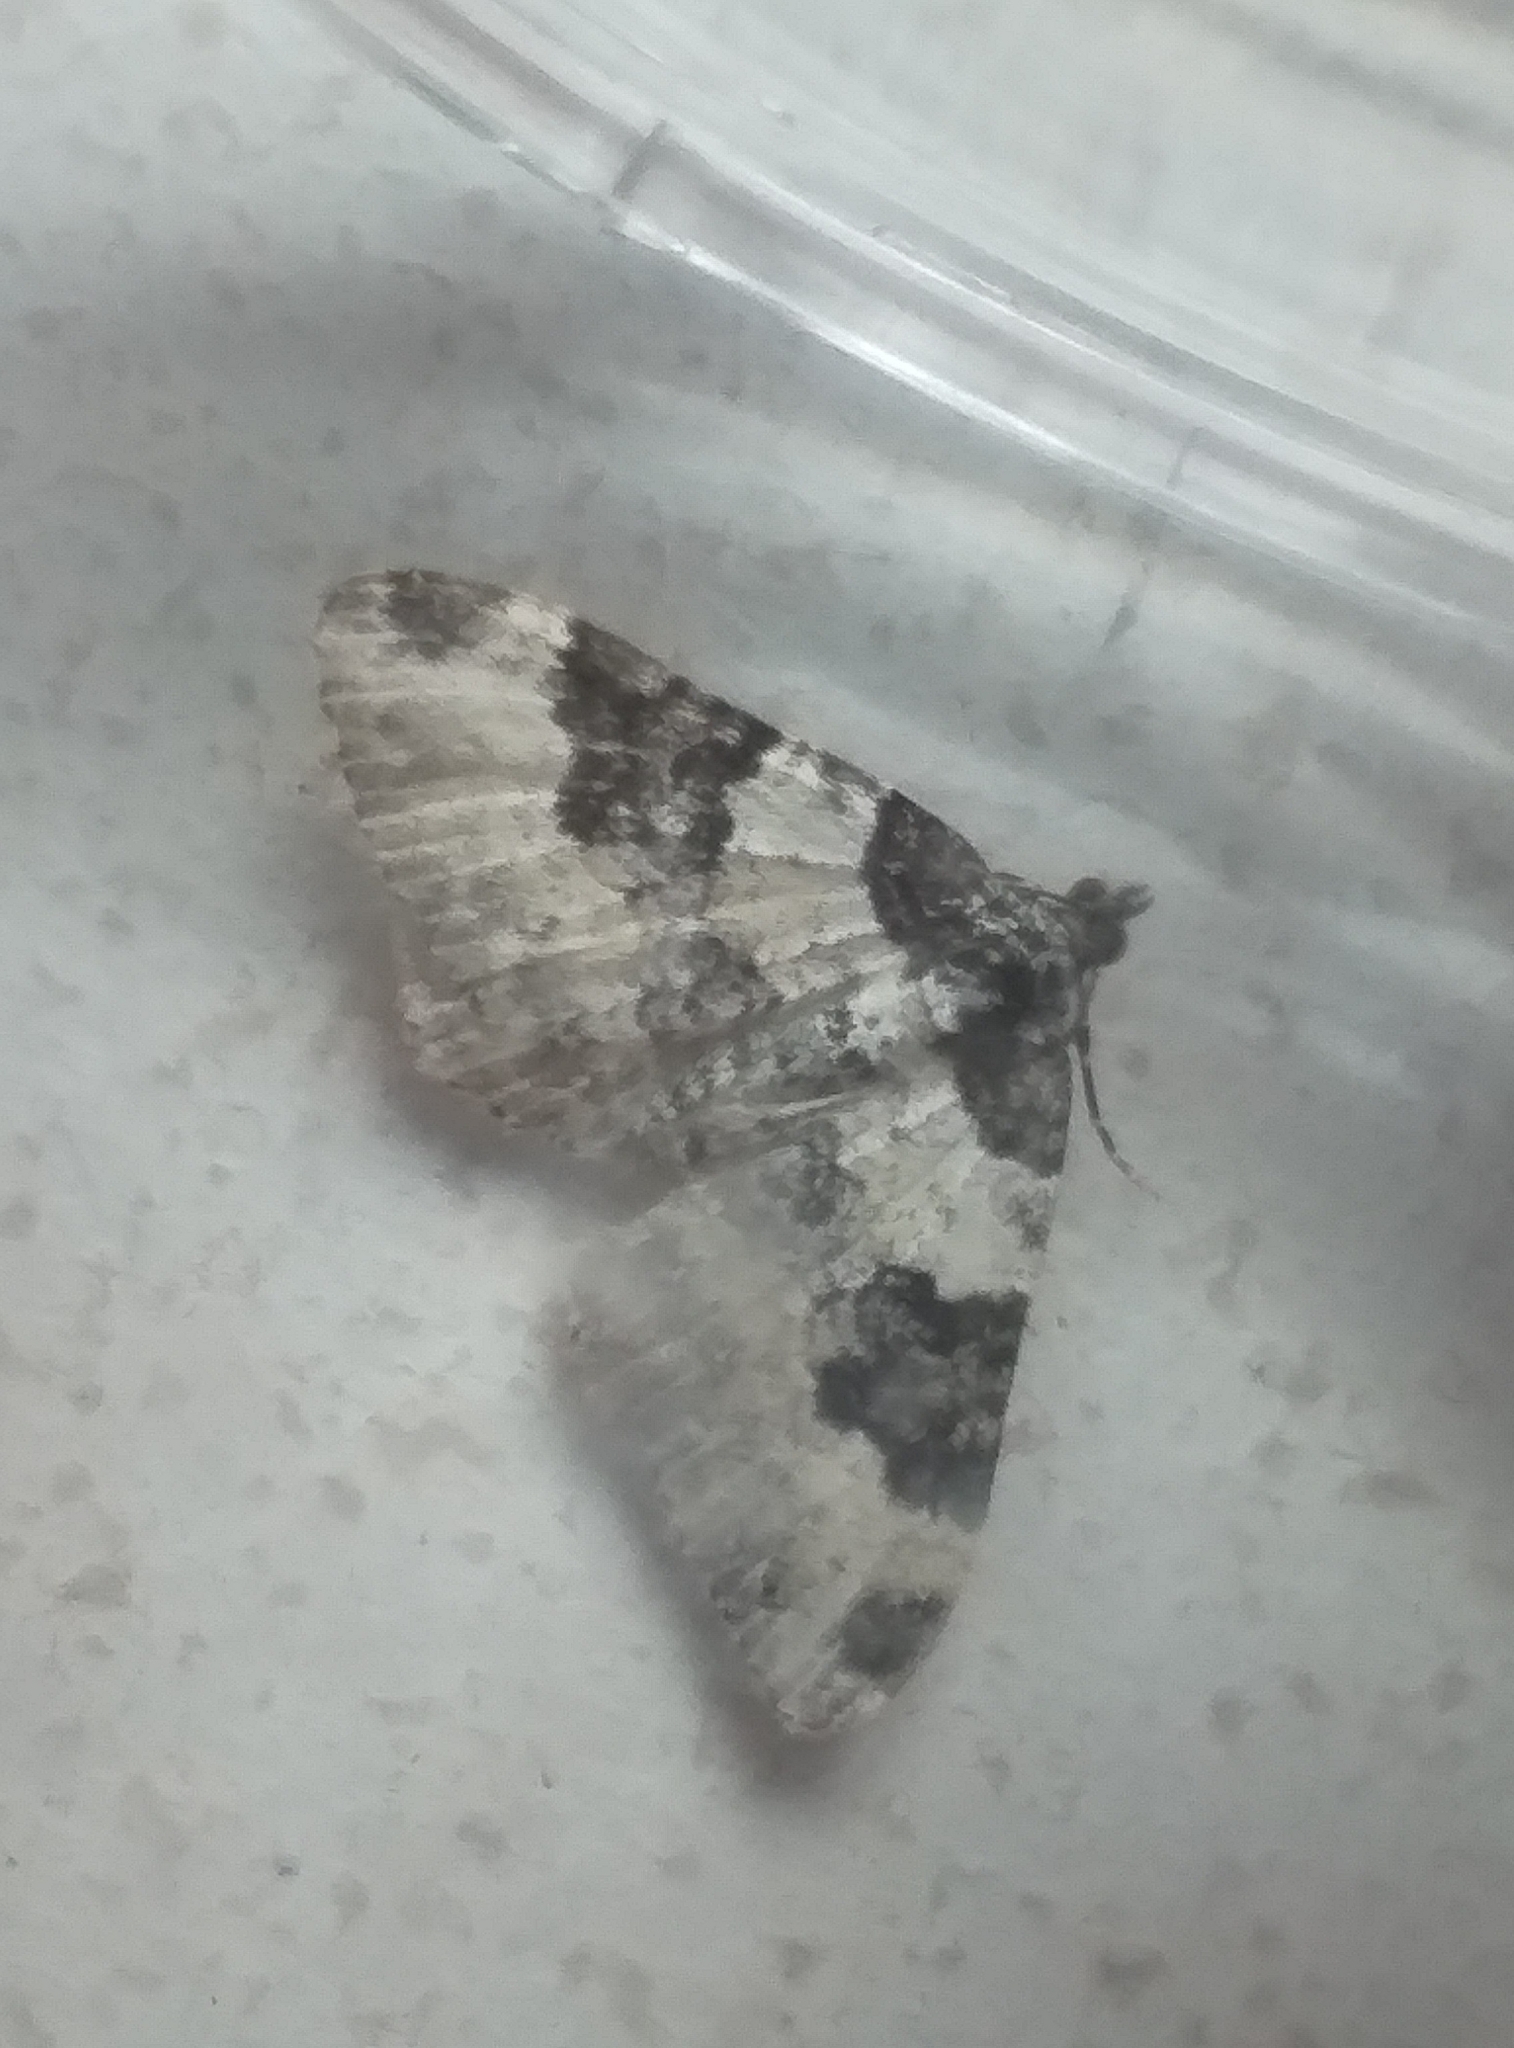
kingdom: Animalia
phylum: Arthropoda
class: Insecta
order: Lepidoptera
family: Geometridae
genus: Xanthorhoe
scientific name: Xanthorhoe fluctuata
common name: Garden carpet
